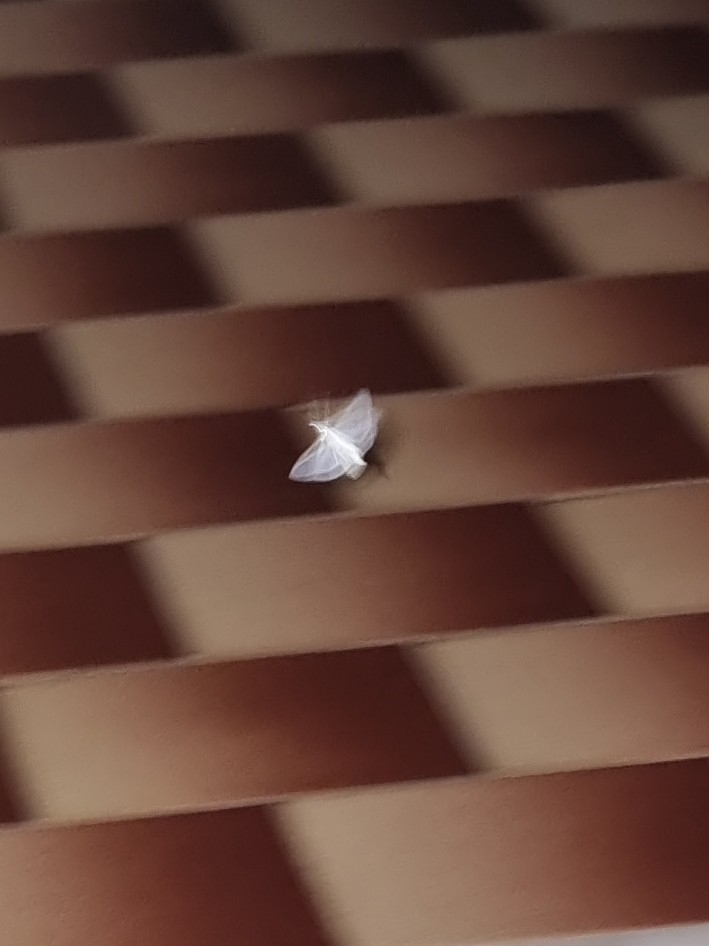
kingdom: Animalia
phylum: Arthropoda
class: Insecta
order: Lepidoptera
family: Crambidae
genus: Palpita
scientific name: Palpita vitrealis
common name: Olive-tree pearl
